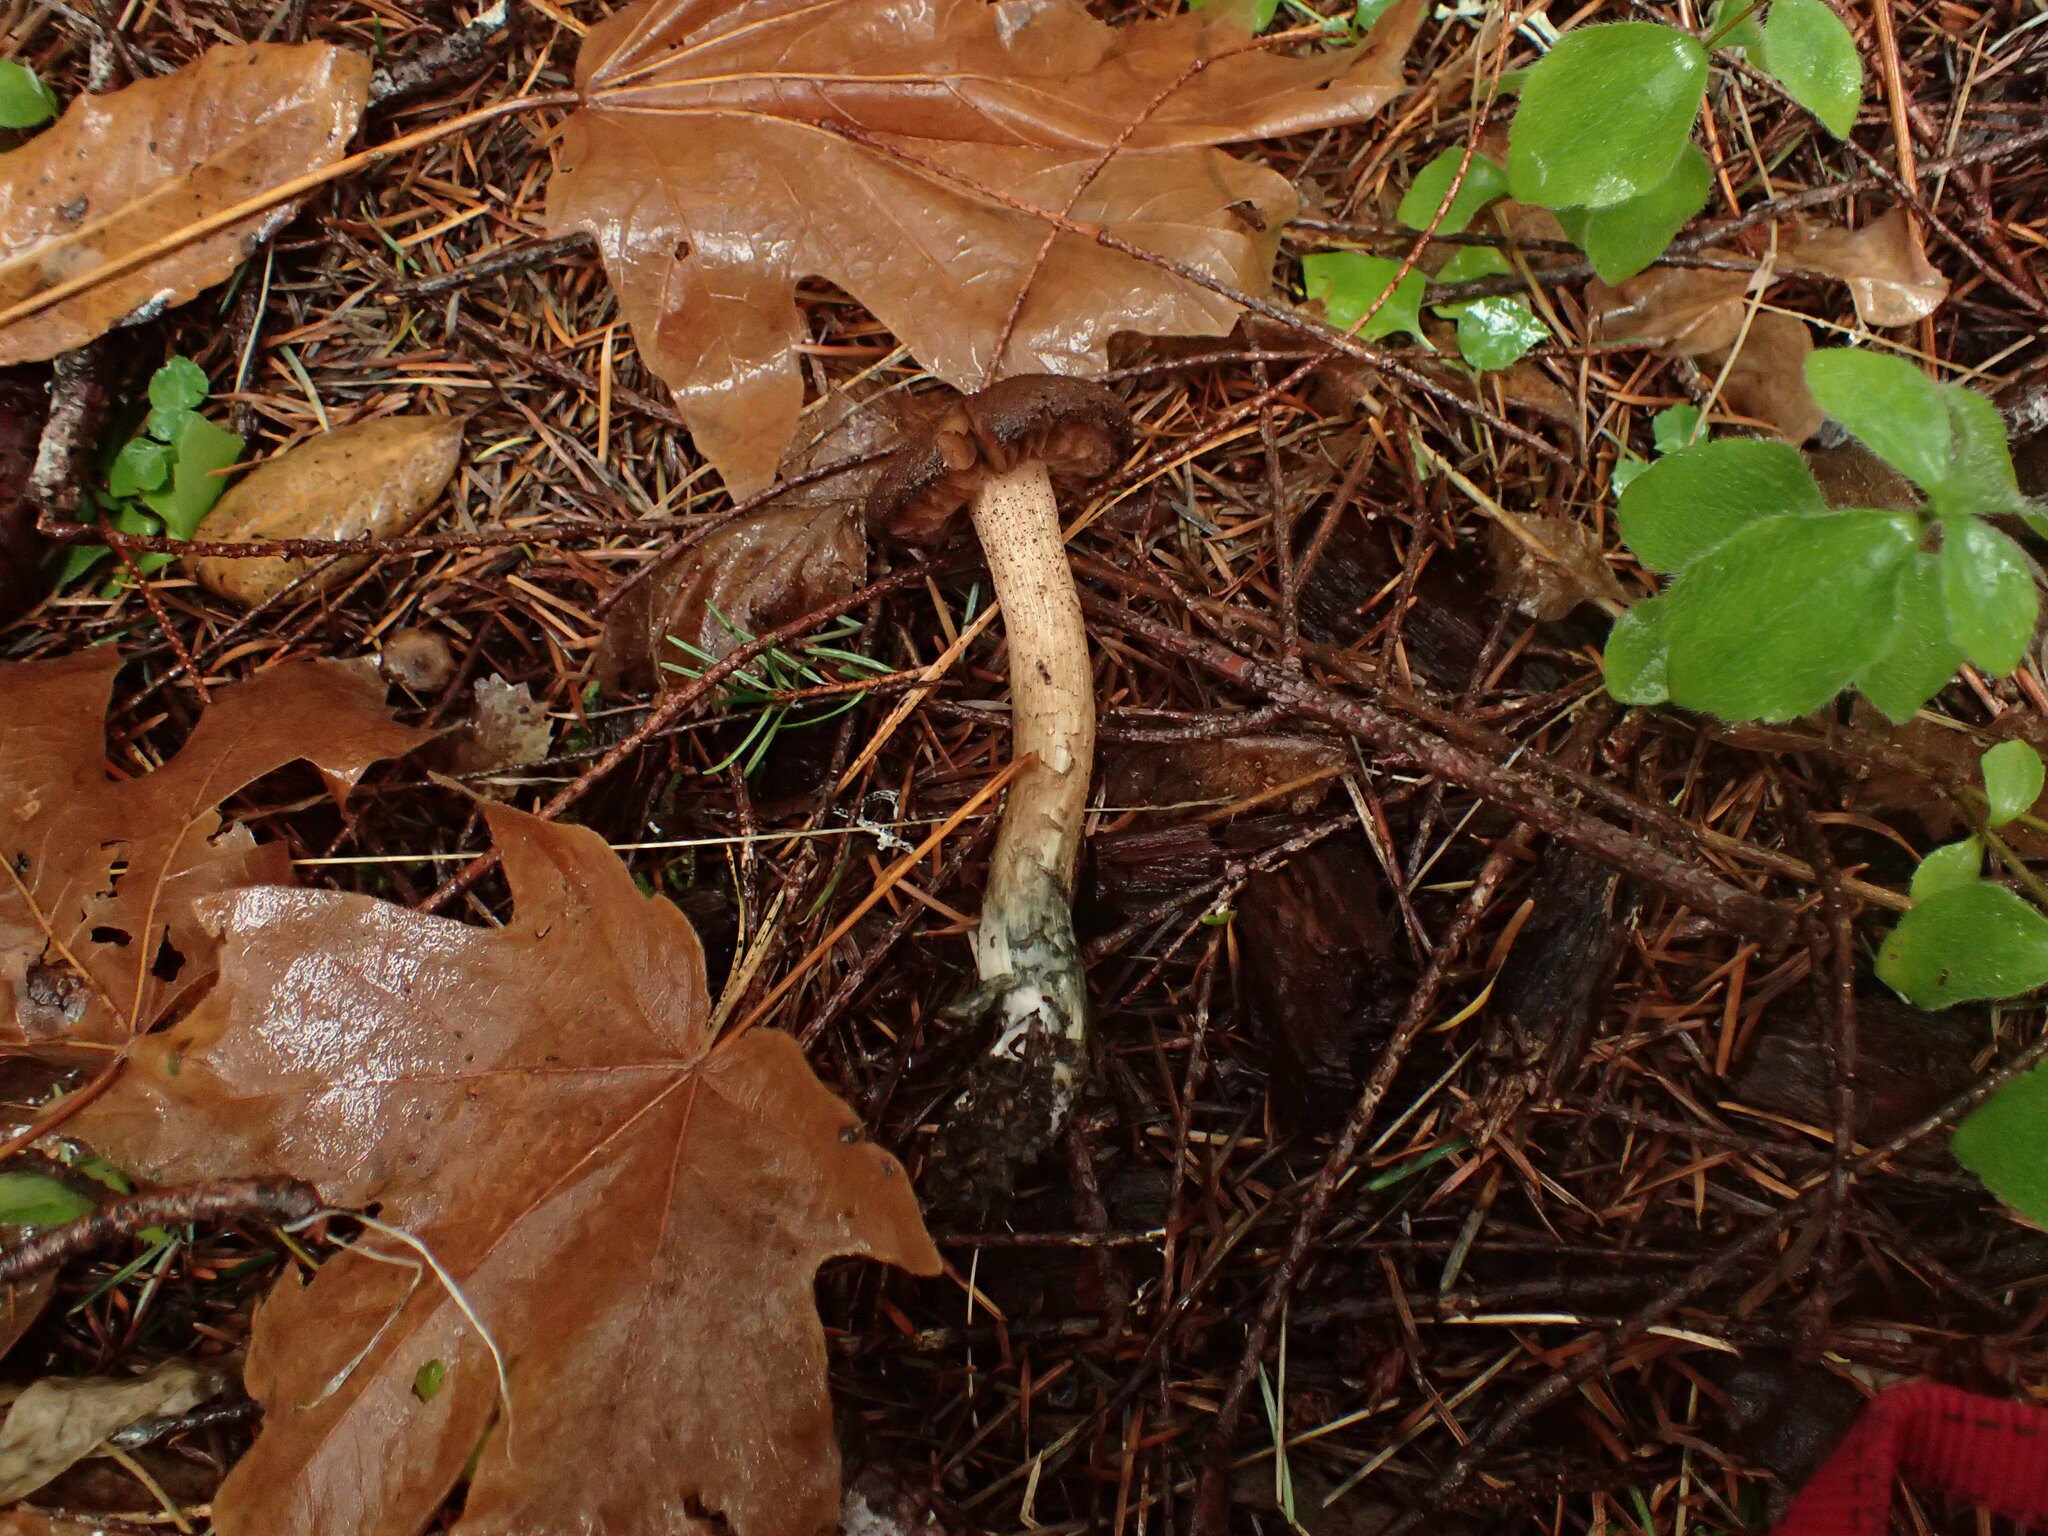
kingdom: Fungi
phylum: Basidiomycota
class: Agaricomycetes
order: Agaricales
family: Inocybaceae
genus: Inosperma
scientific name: Inosperma calamistratum
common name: Greenfoot fibrecap
